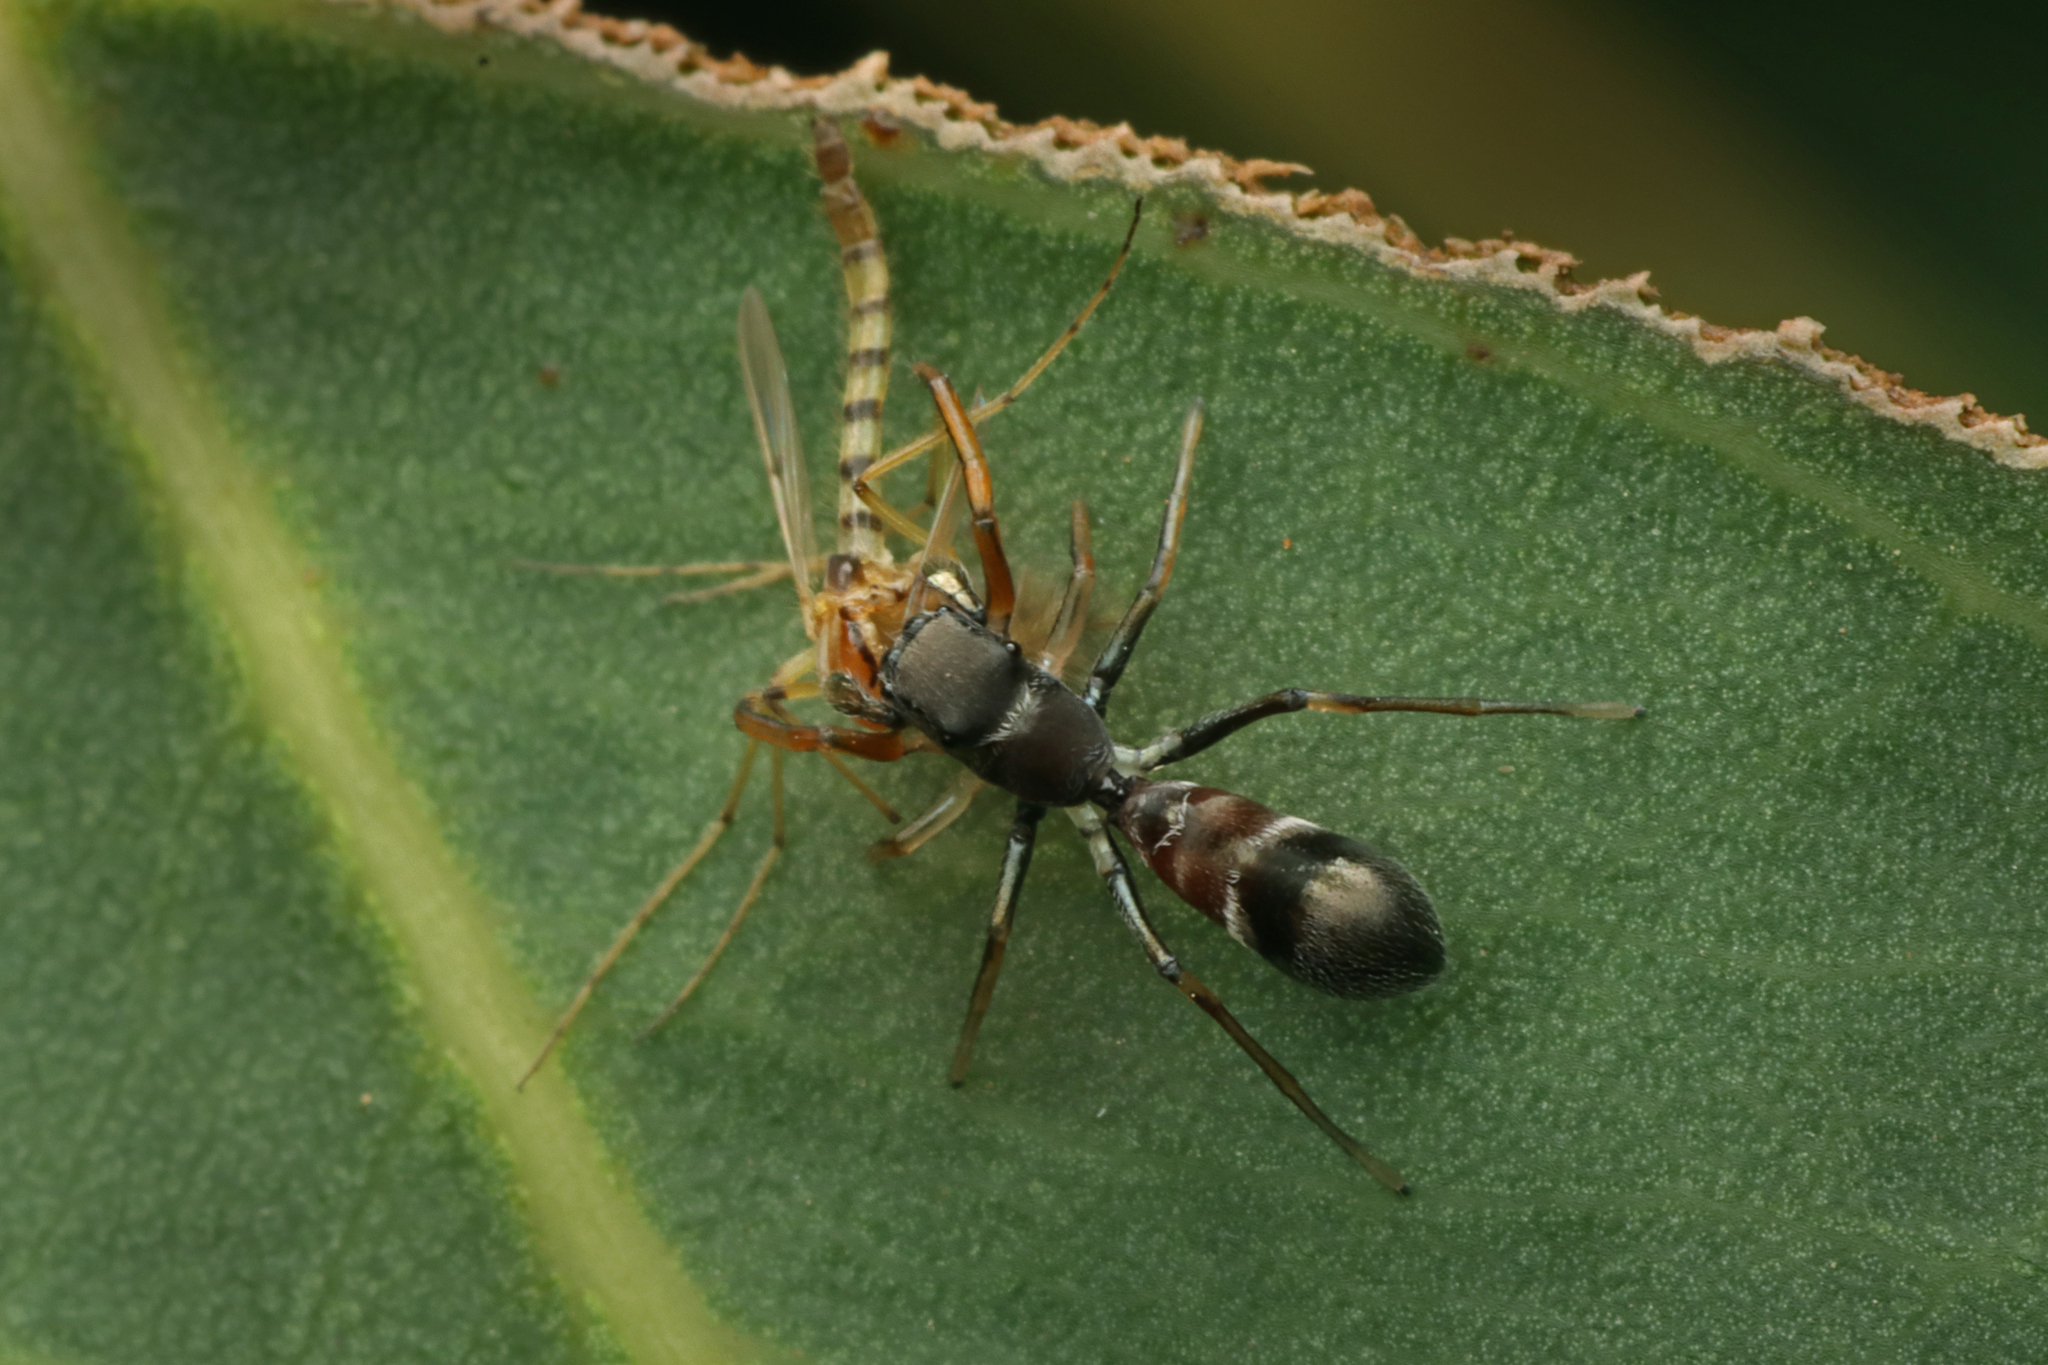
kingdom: Animalia
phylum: Arthropoda
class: Arachnida
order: Araneae
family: Salticidae
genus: Myrmarachne
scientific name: Myrmarachne striatipes
